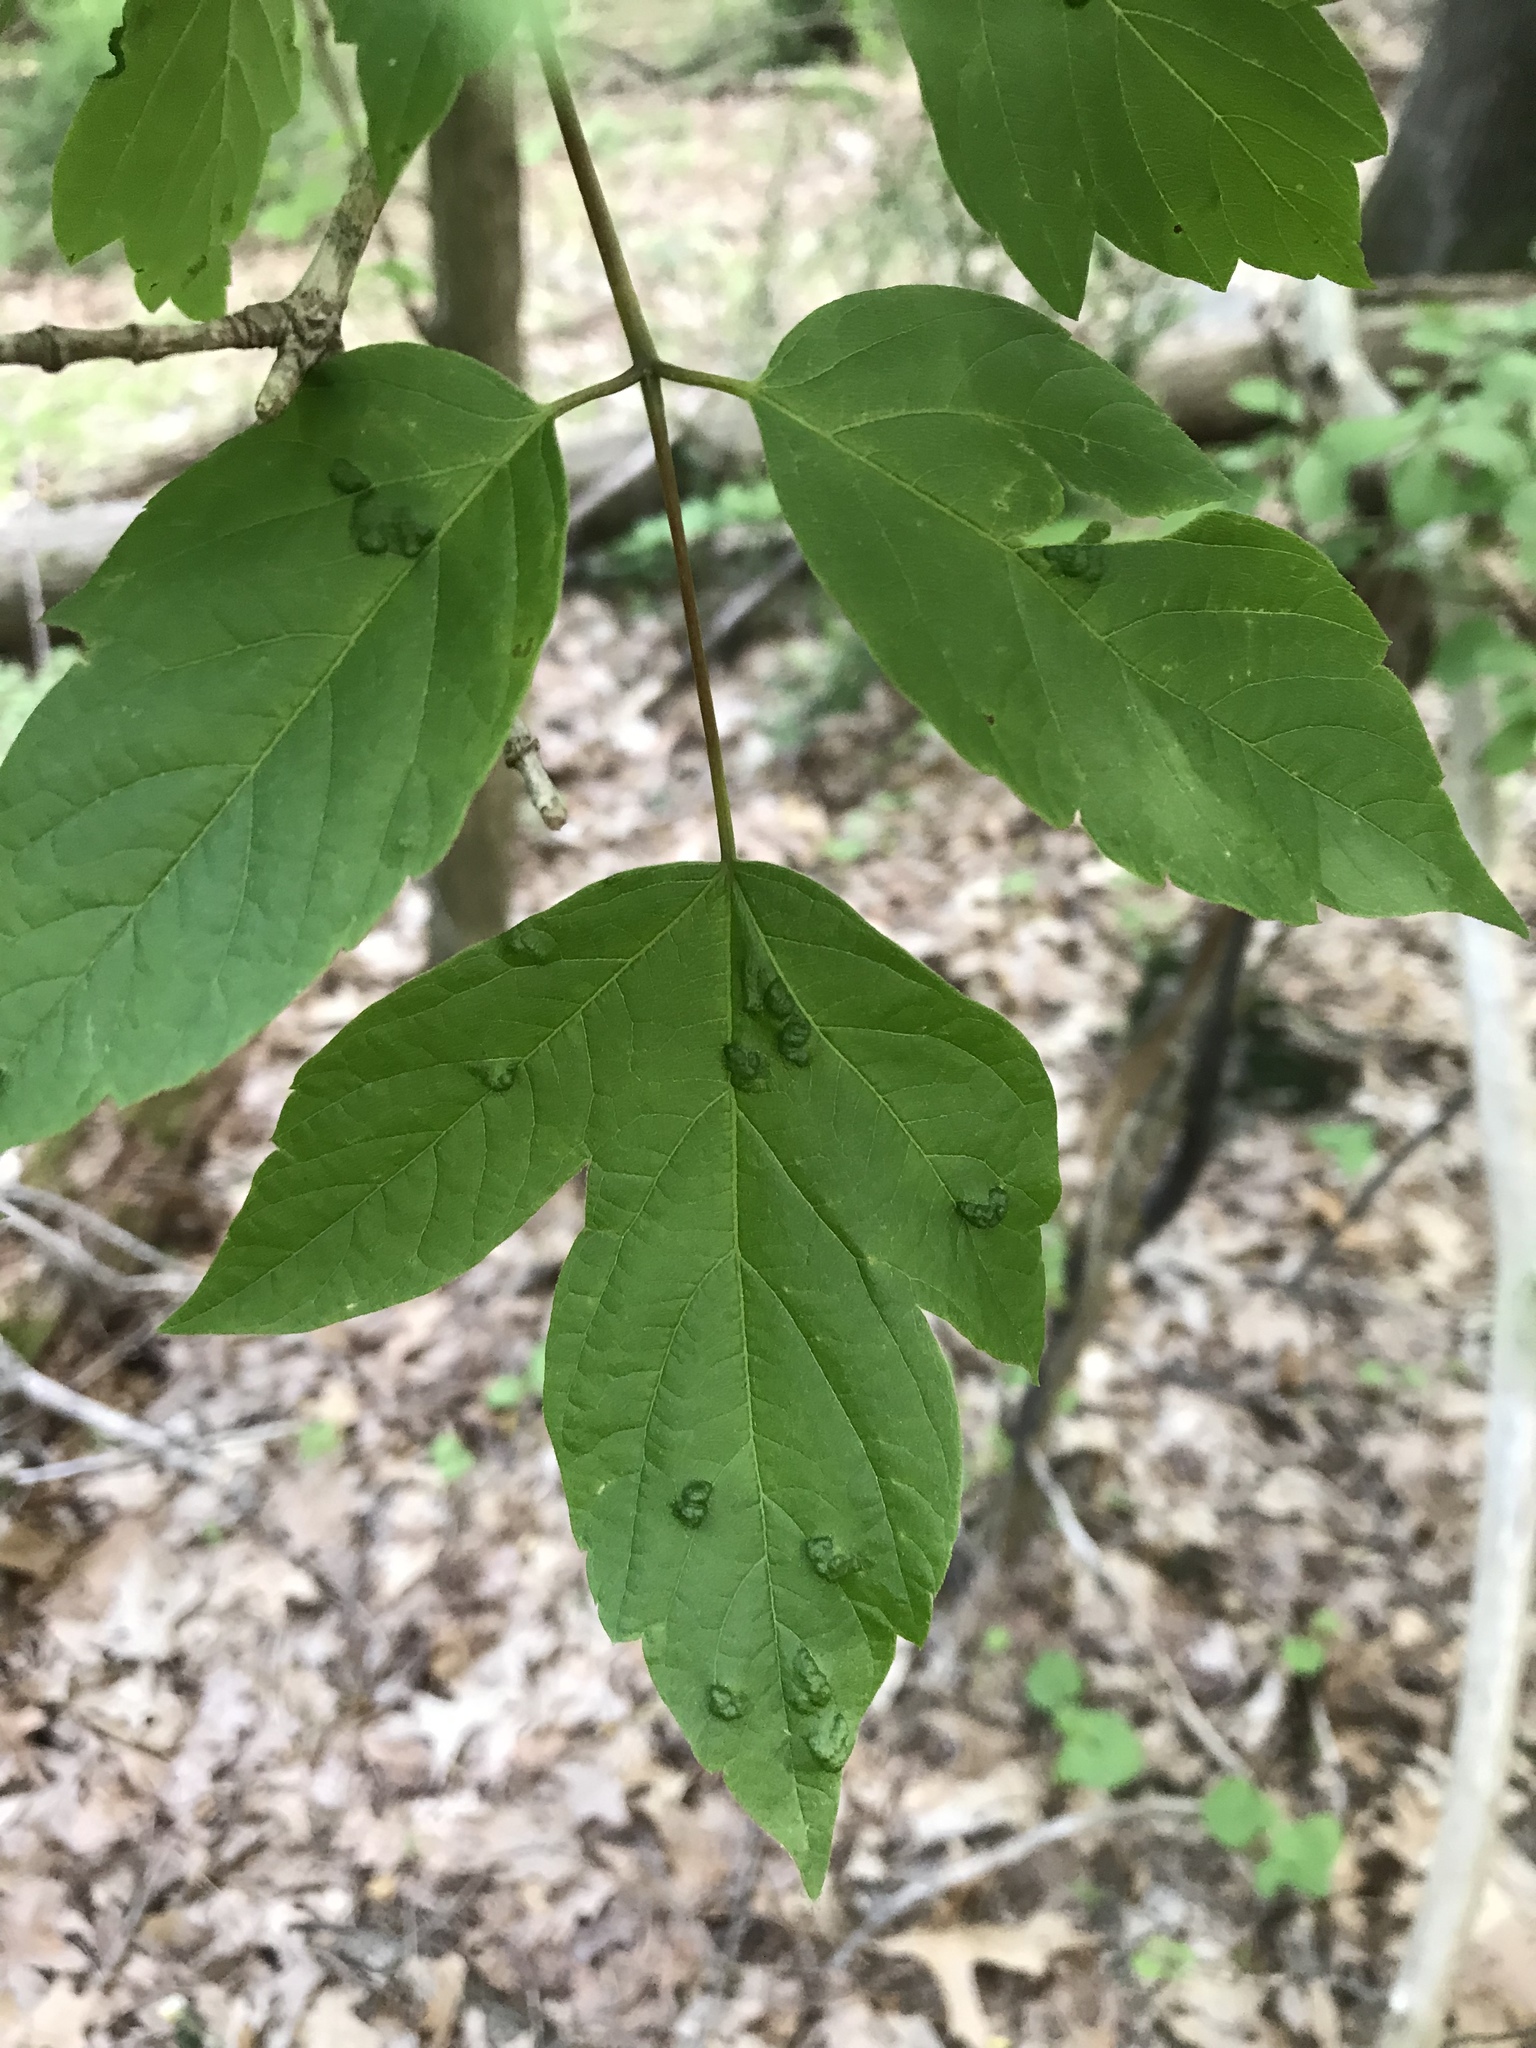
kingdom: Plantae
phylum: Tracheophyta
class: Magnoliopsida
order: Sapindales
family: Sapindaceae
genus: Acer
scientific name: Acer negundo
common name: Ashleaf maple
